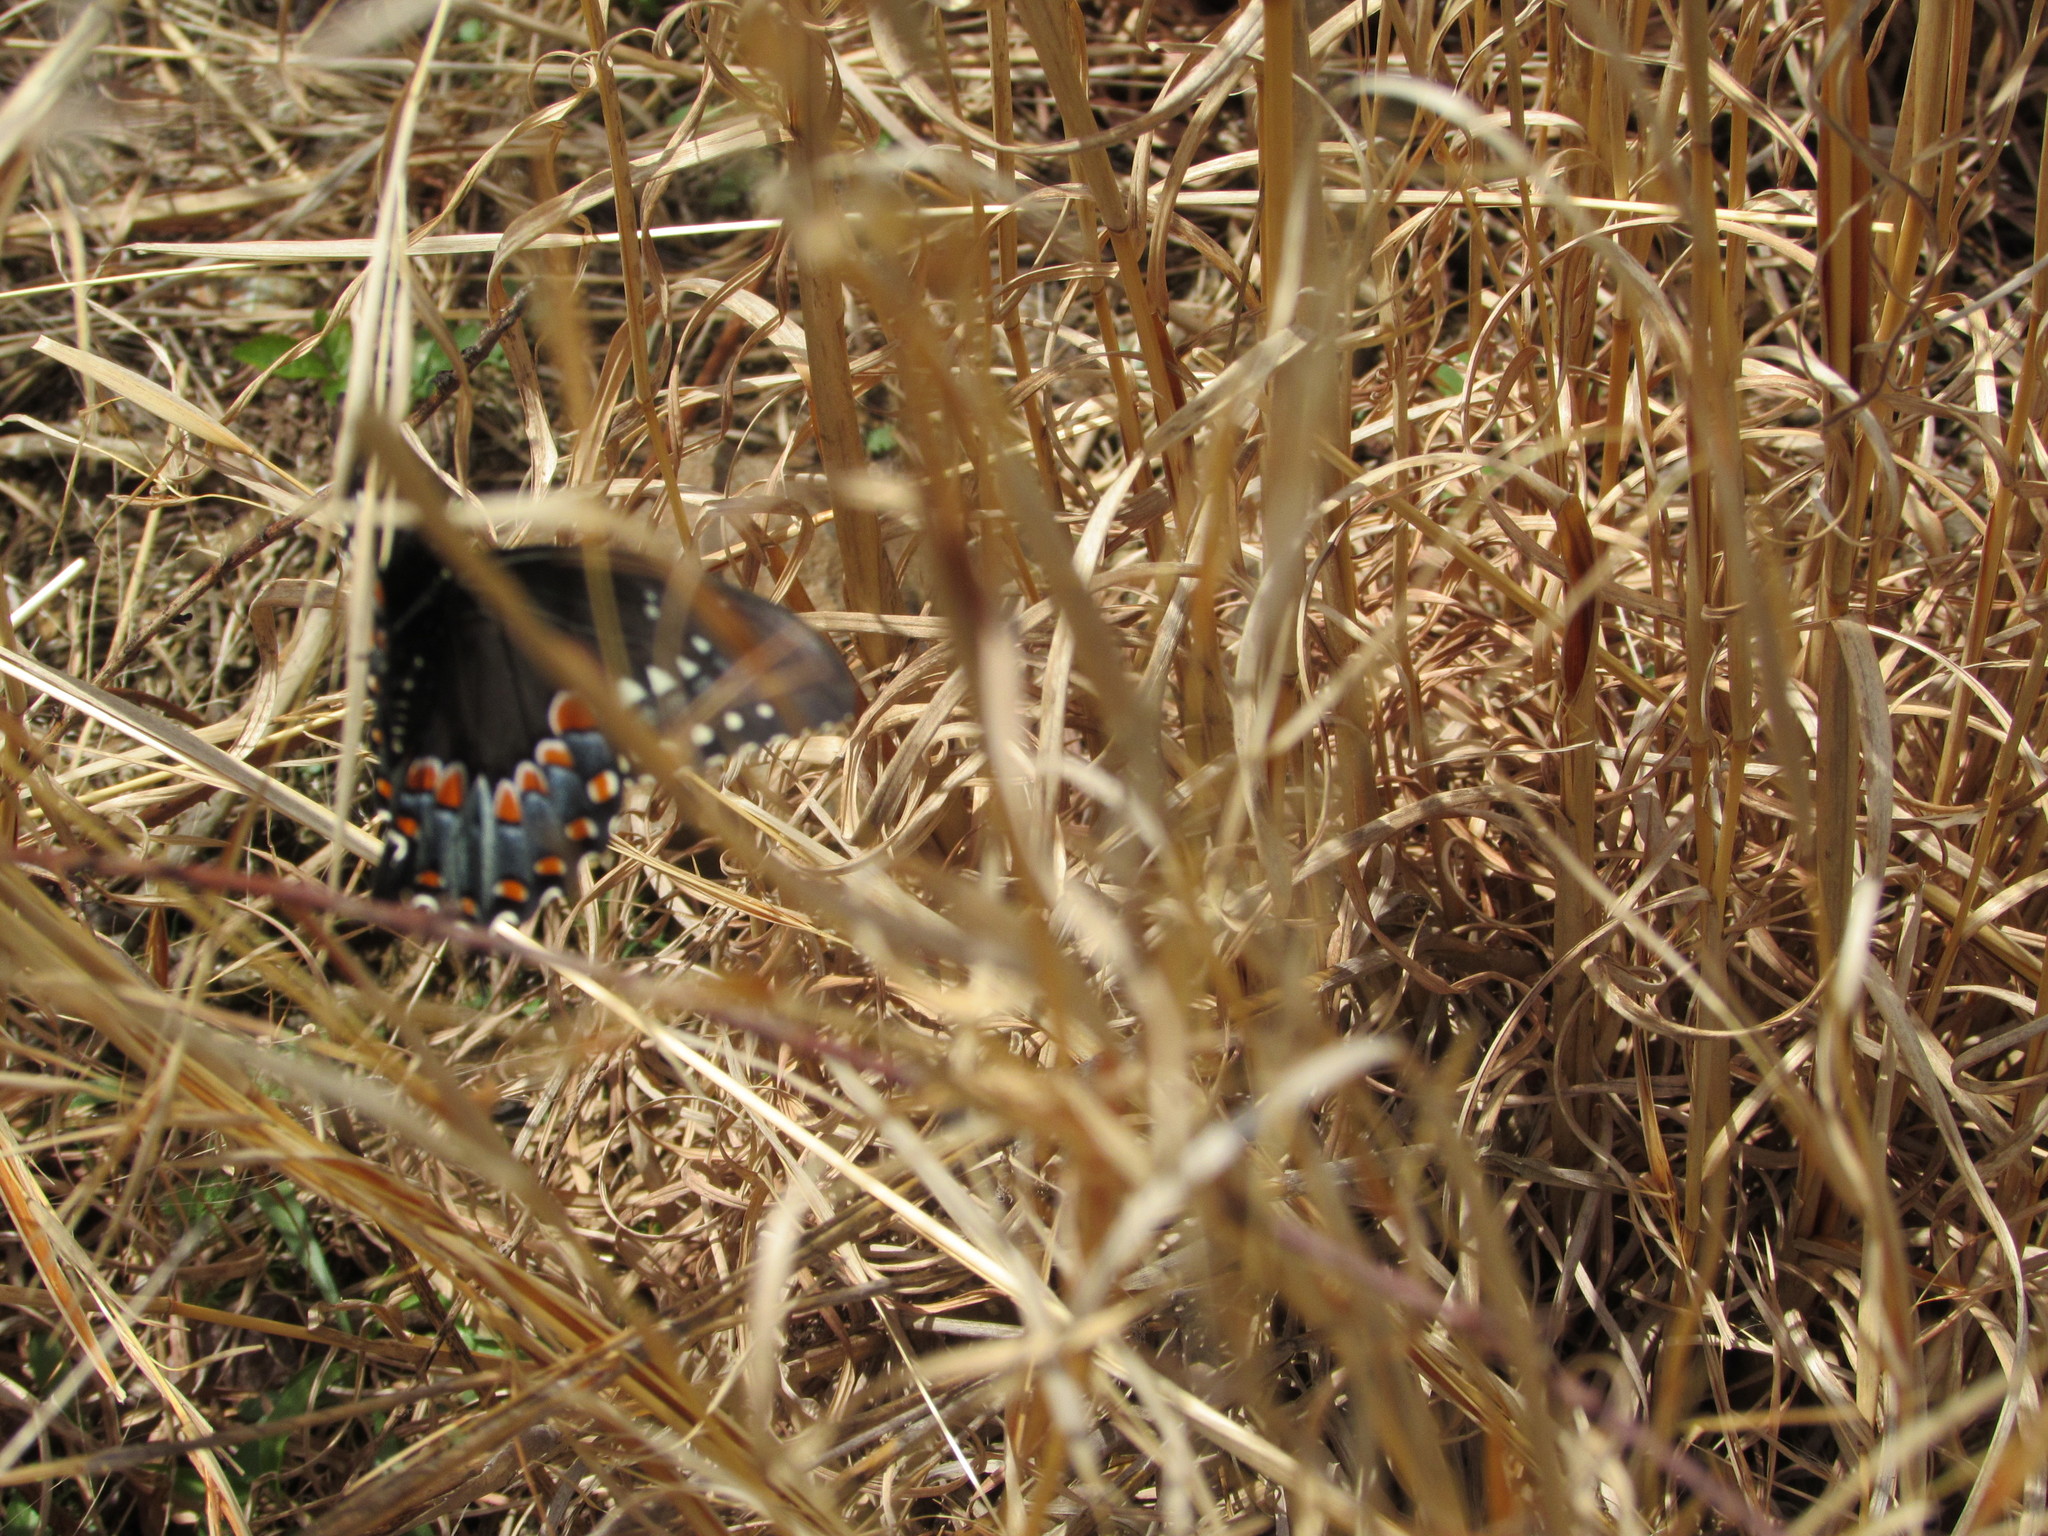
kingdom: Animalia
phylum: Arthropoda
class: Insecta
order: Lepidoptera
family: Papilionidae
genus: Papilio
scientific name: Papilio troilus
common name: Spicebush swallowtail
